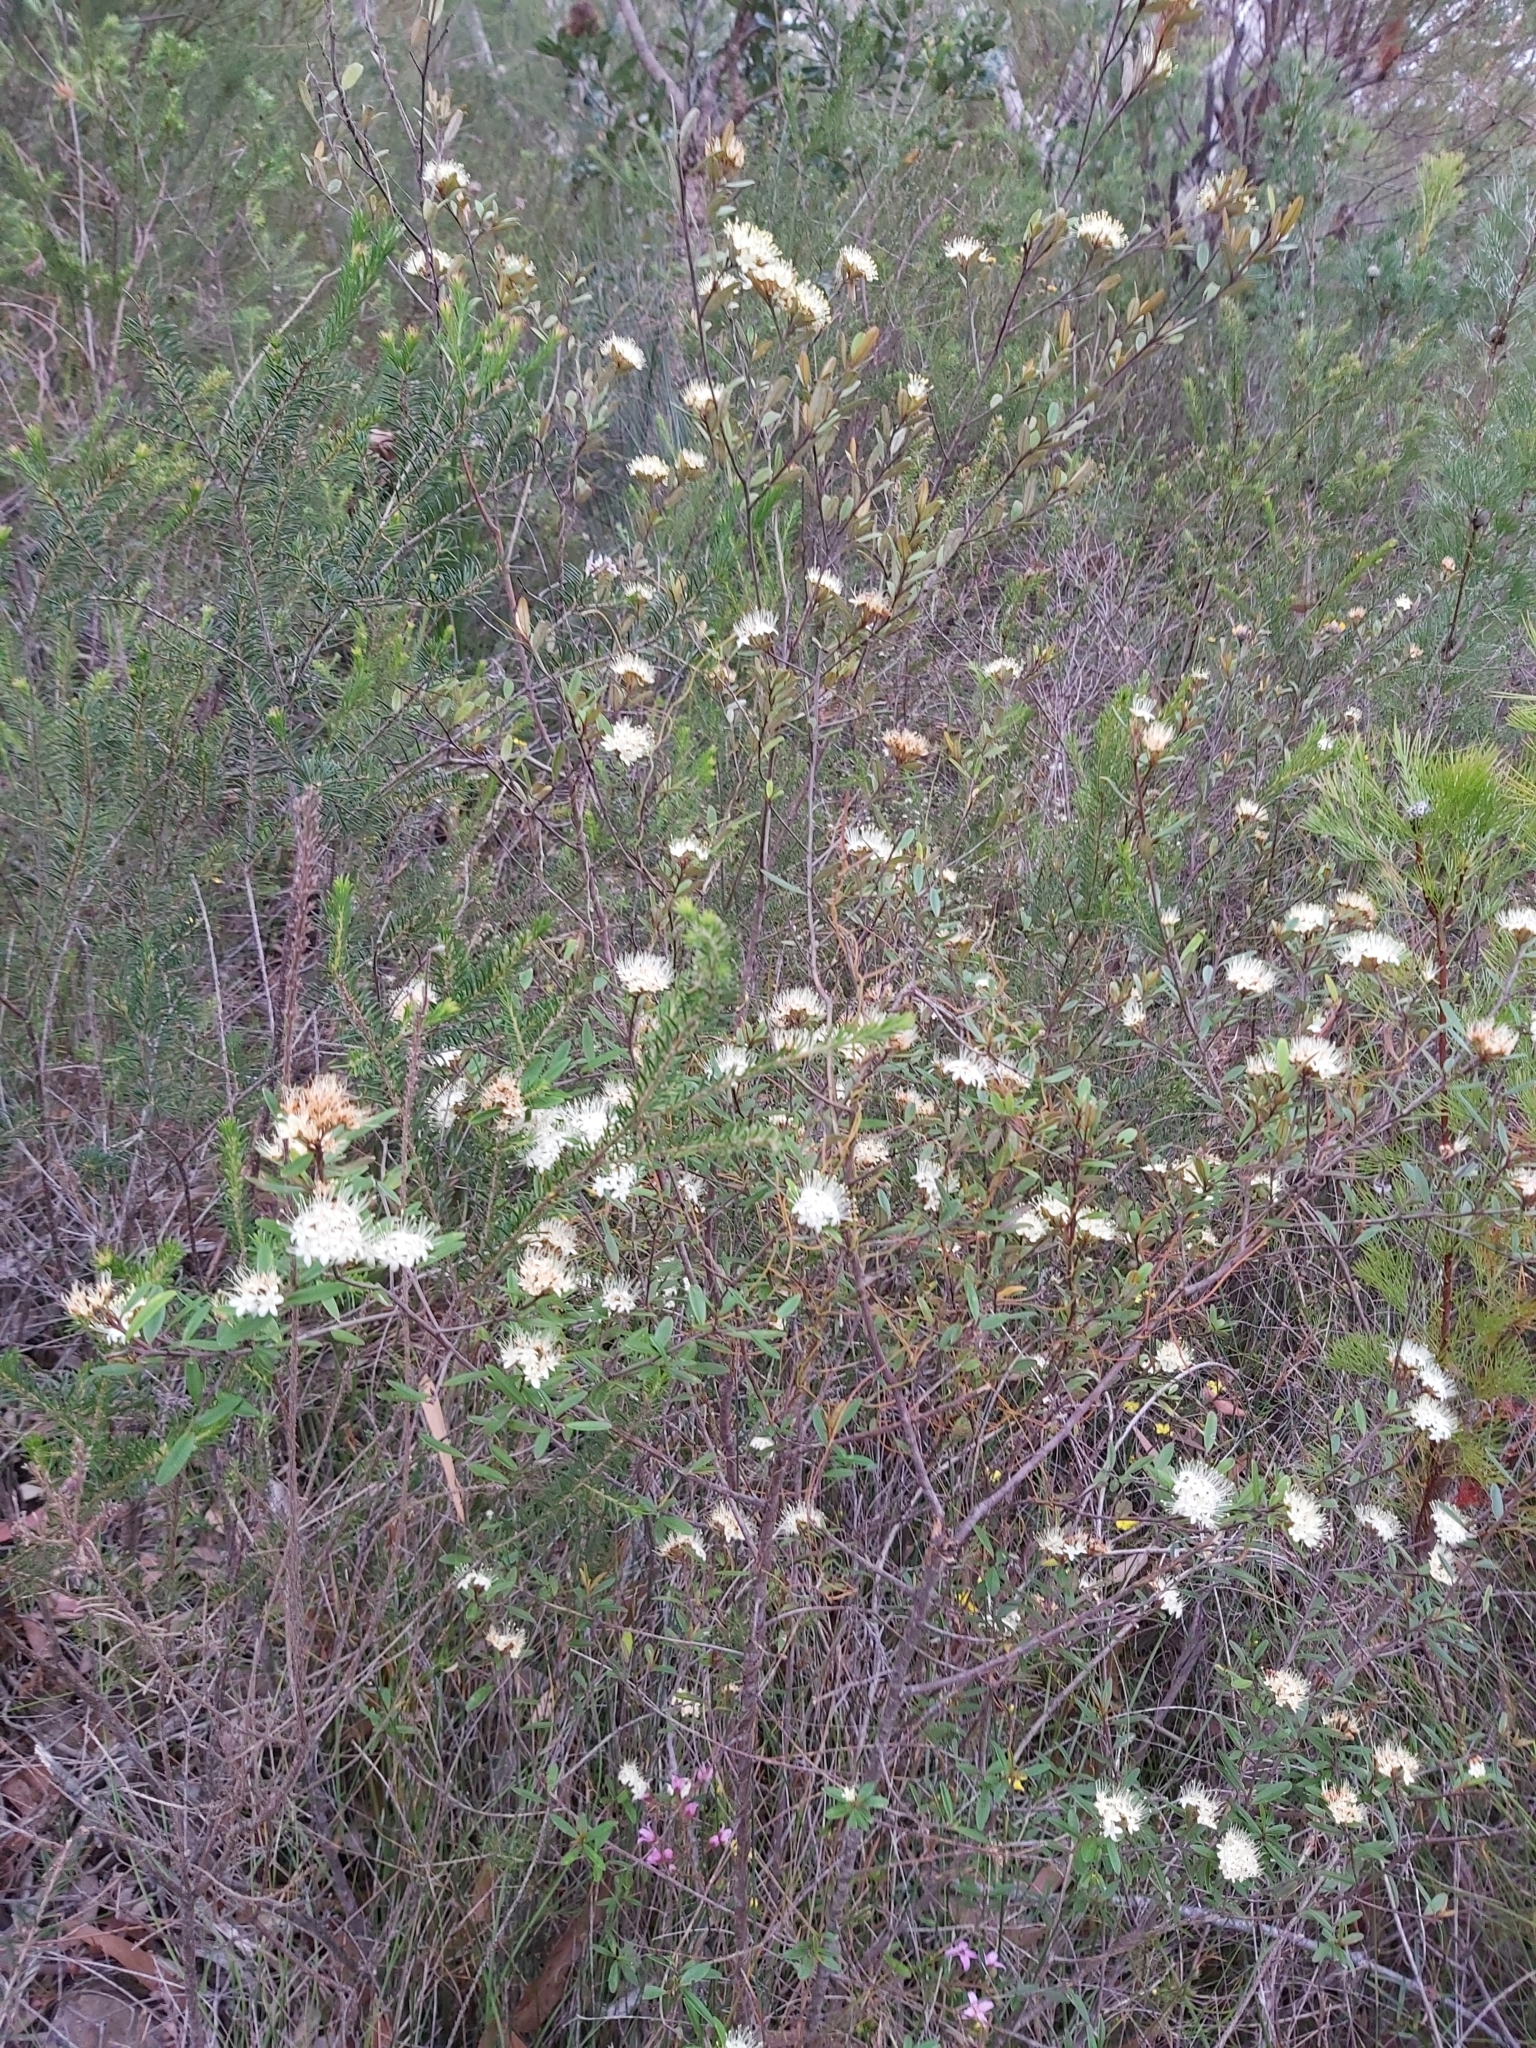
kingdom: Plantae
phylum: Tracheophyta
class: Magnoliopsida
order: Sapindales
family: Rutaceae
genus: Phebalium
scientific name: Phebalium squamulosum
